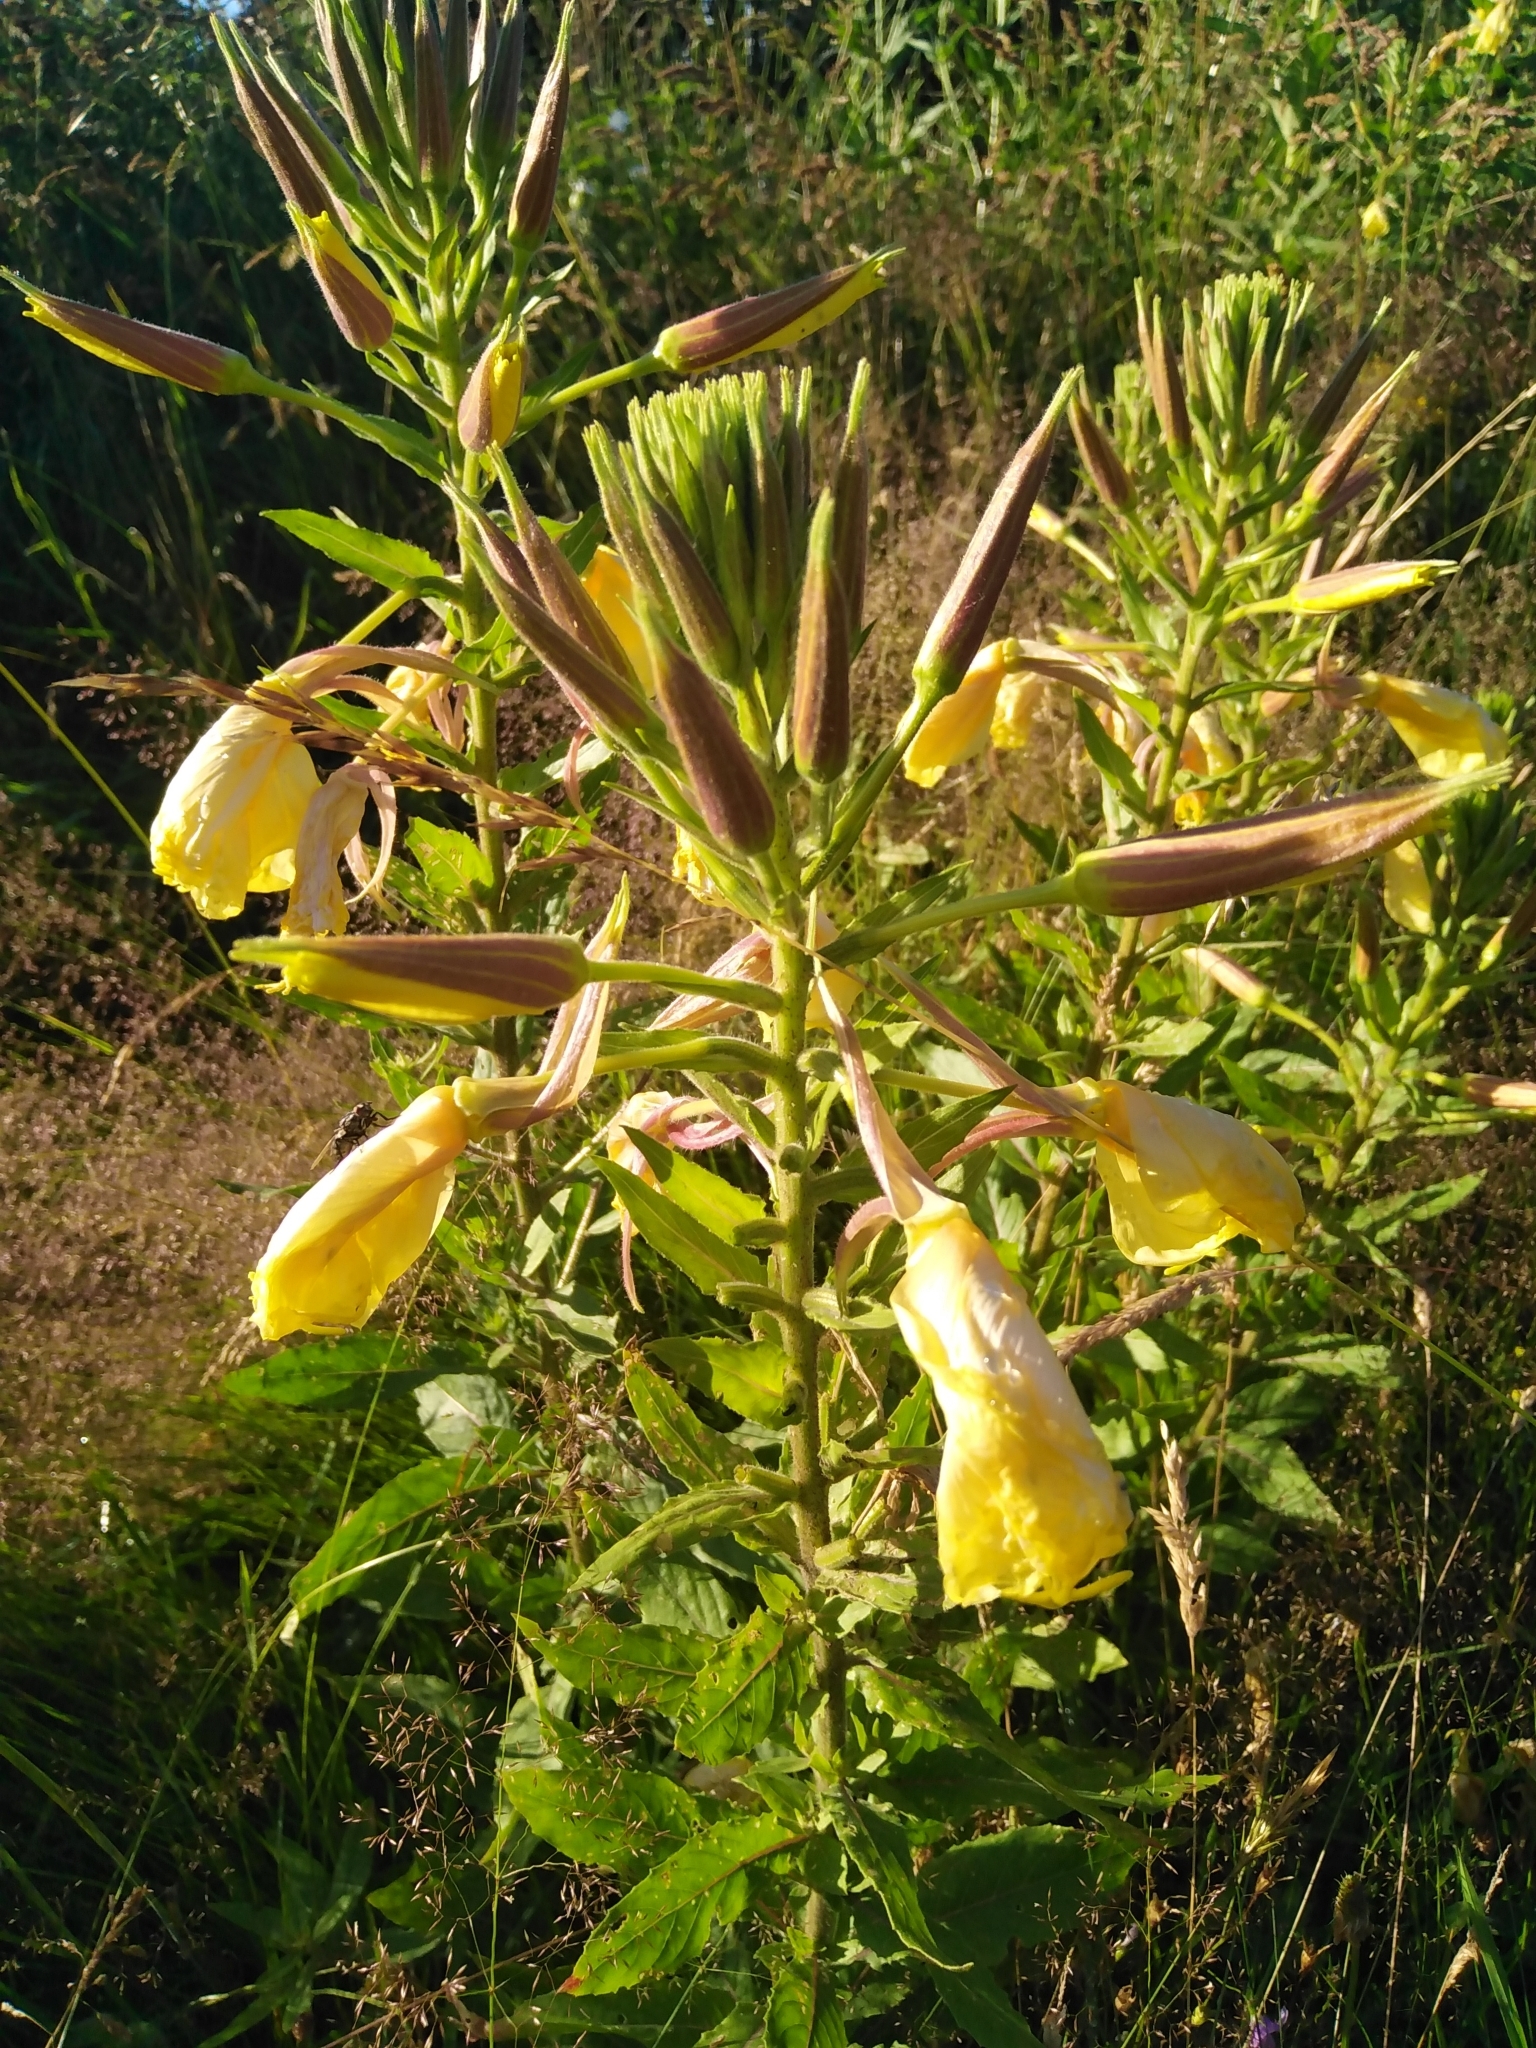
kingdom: Plantae
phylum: Tracheophyta
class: Magnoliopsida
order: Myrtales
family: Onagraceae
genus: Oenothera
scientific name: Oenothera glazioviana
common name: Large-flowered evening-primrose
